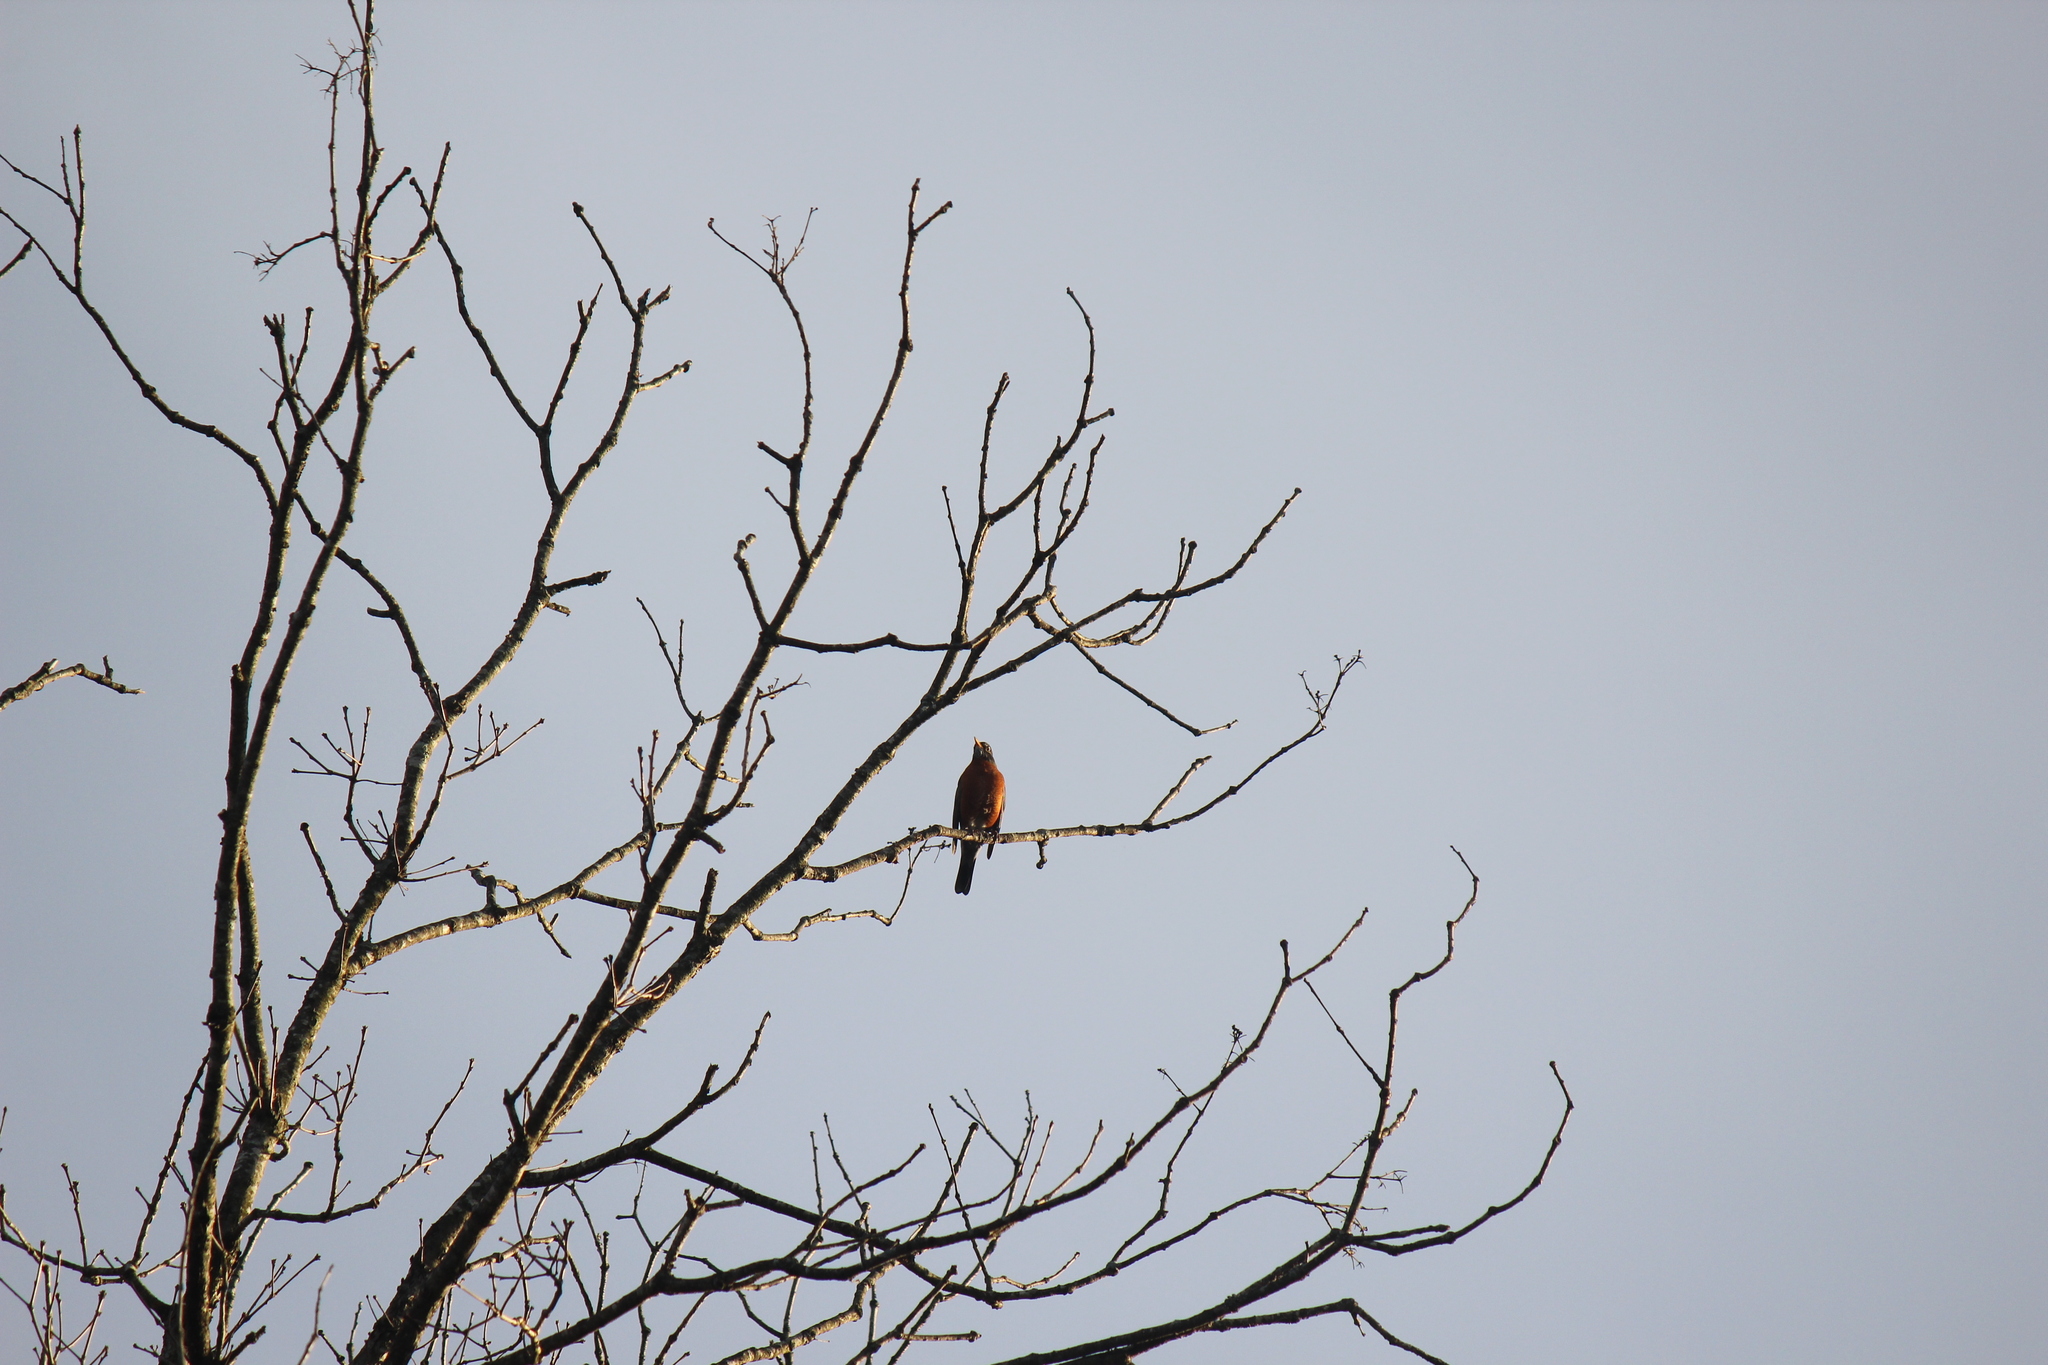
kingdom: Animalia
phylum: Chordata
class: Aves
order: Passeriformes
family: Turdidae
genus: Turdus
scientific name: Turdus migratorius
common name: American robin
